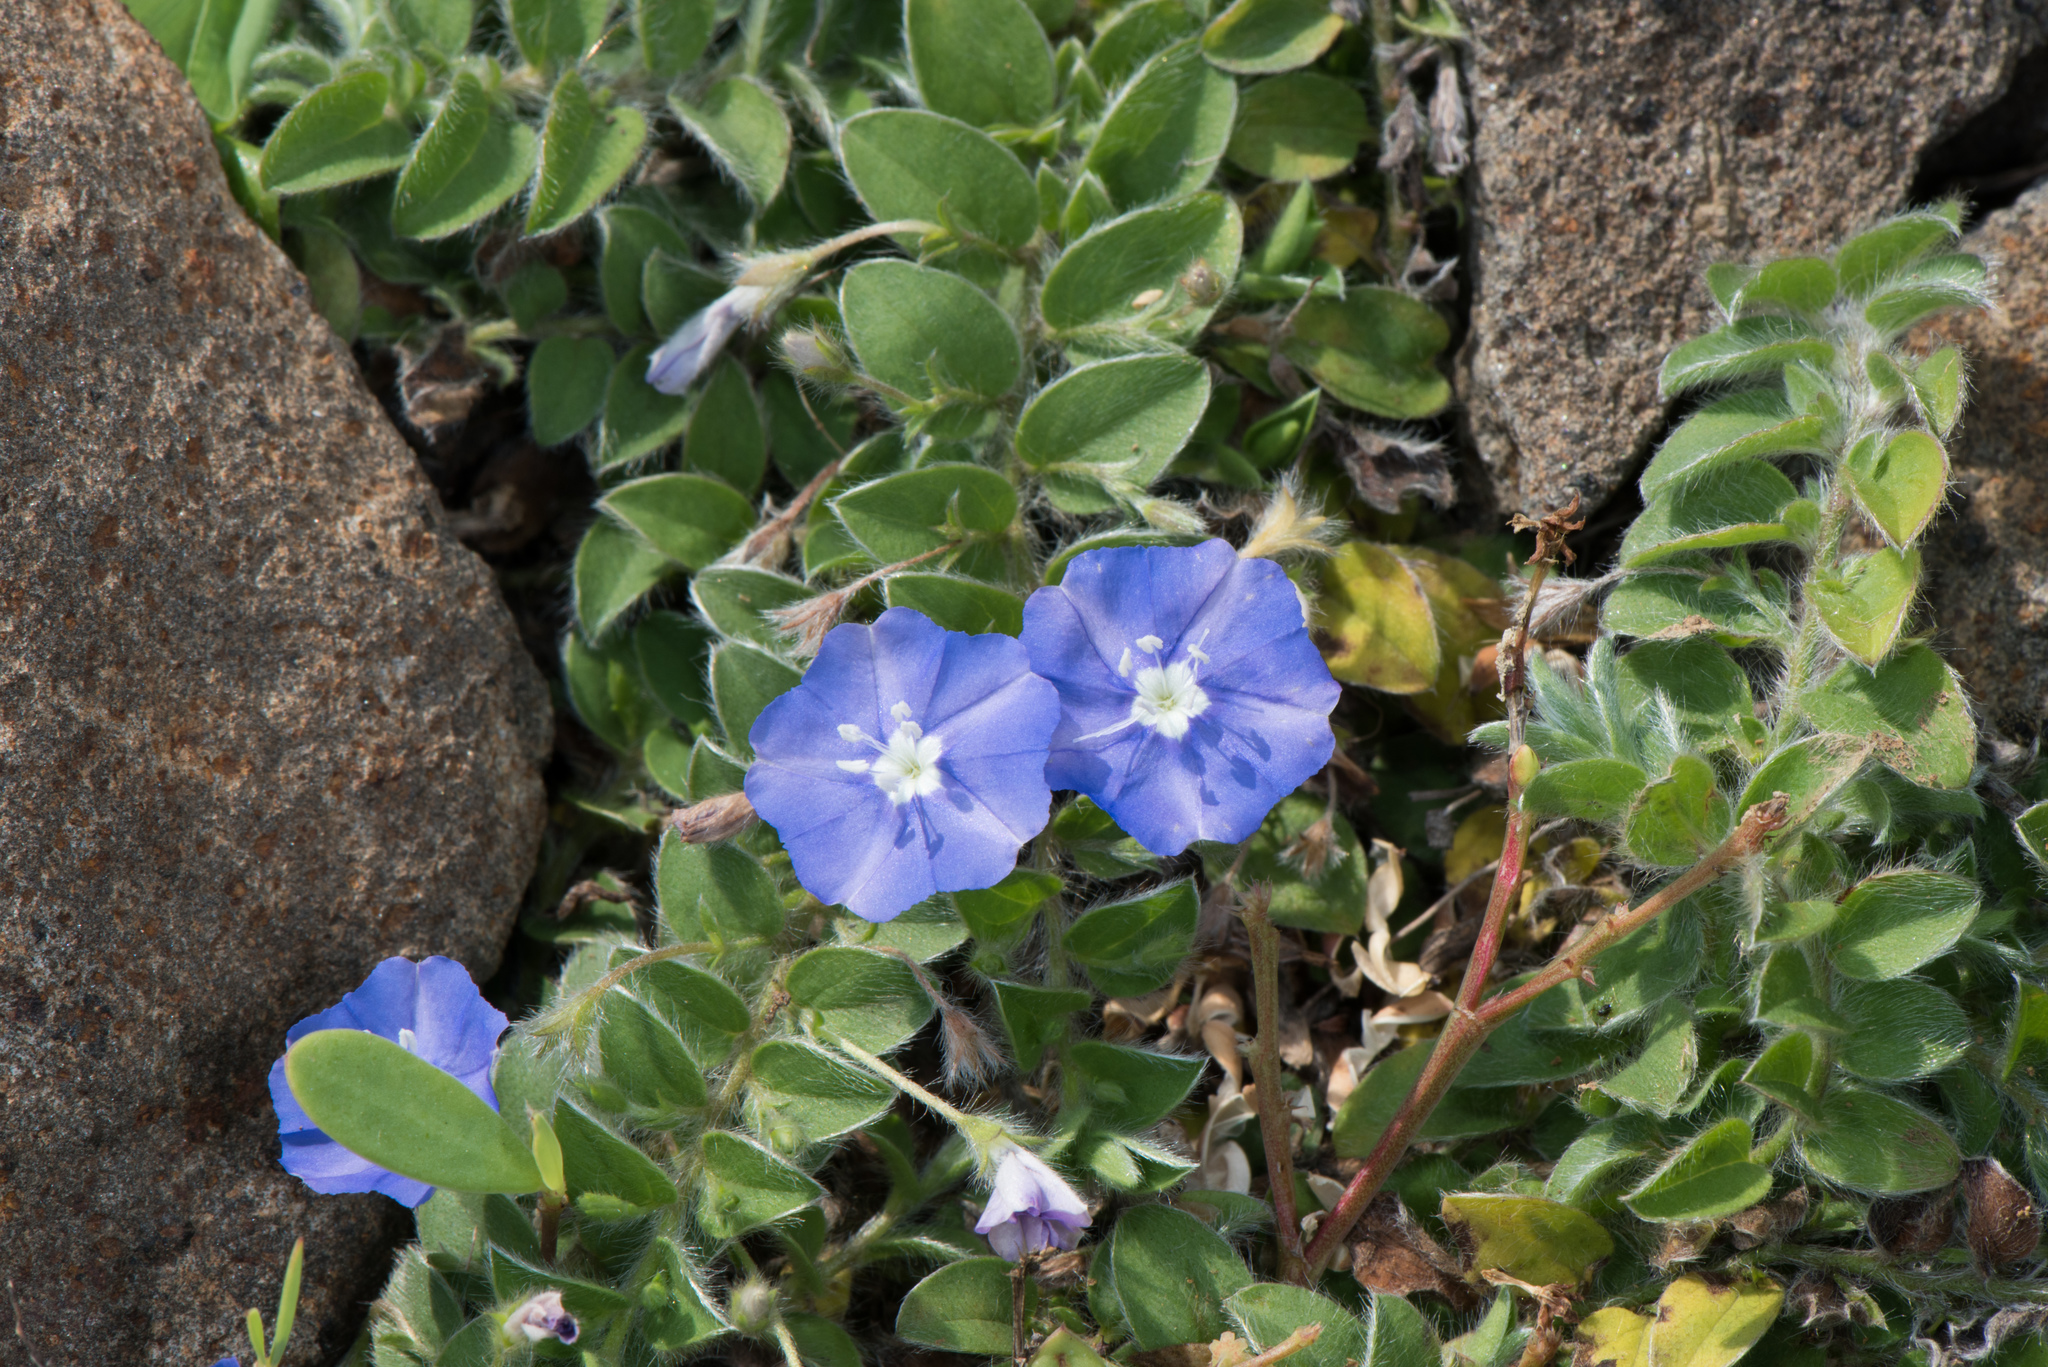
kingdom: Plantae
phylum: Tracheophyta
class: Magnoliopsida
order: Solanales
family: Convolvulaceae
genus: Evolvulus
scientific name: Evolvulus alsinoides
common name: Slender dwarf morning-glory
